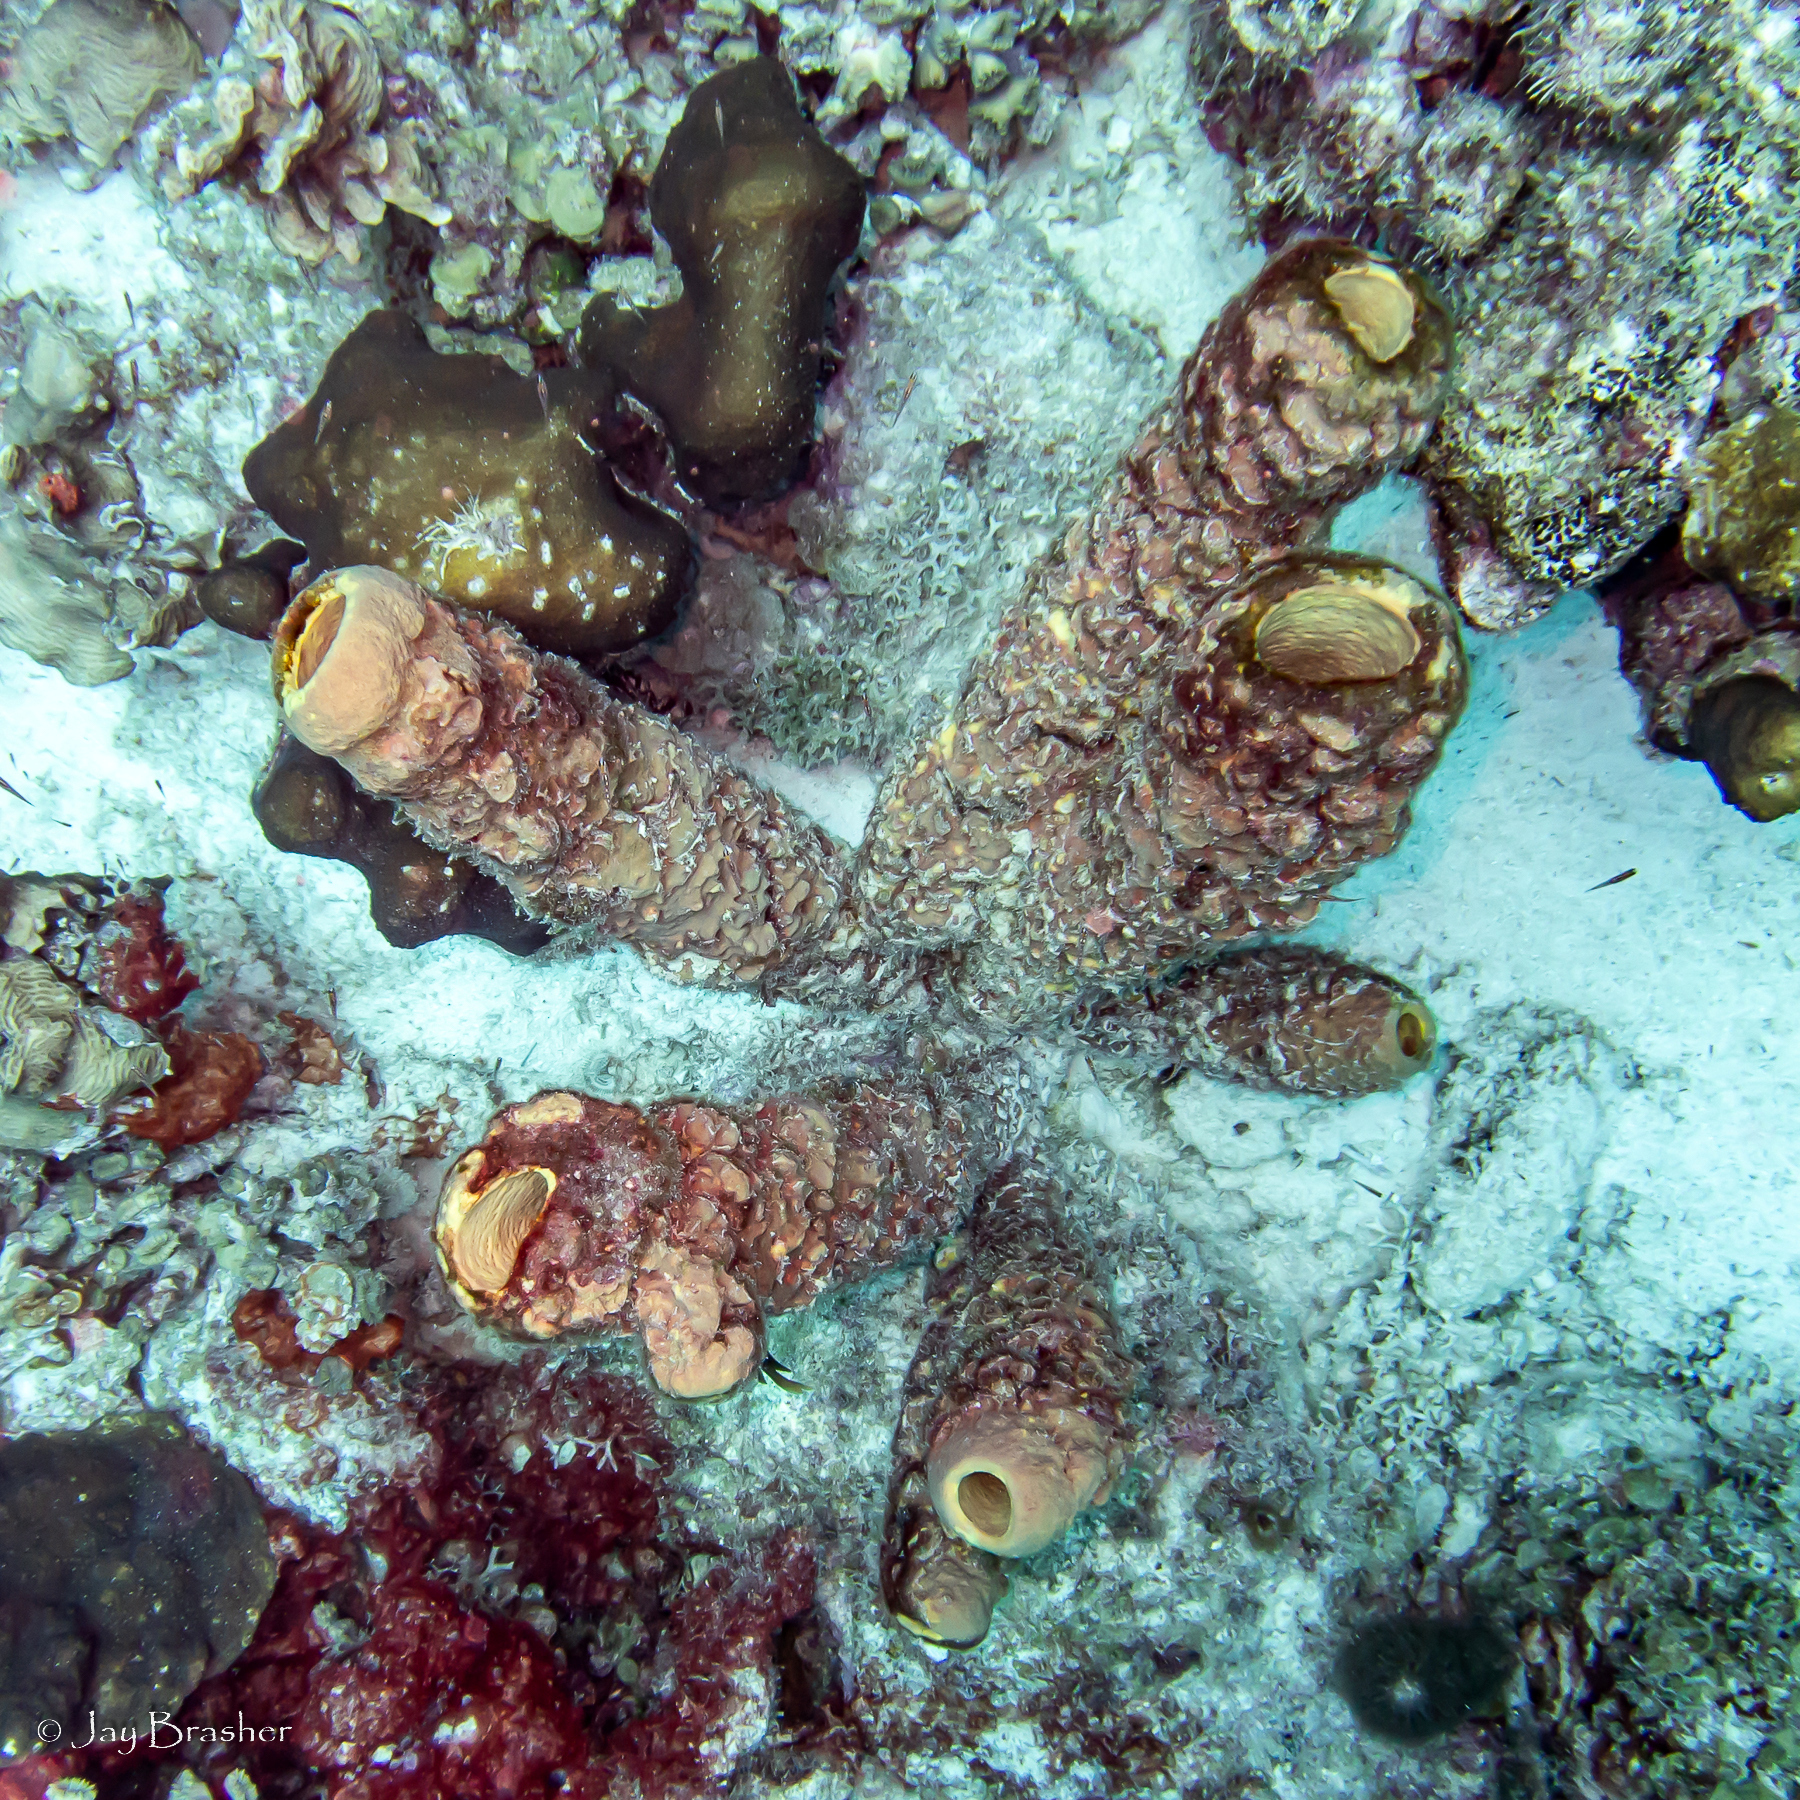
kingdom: Animalia
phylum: Porifera
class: Demospongiae
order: Verongiida
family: Aplysinidae
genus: Aplysina
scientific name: Aplysina archeri
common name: Stove-pipe sponge
